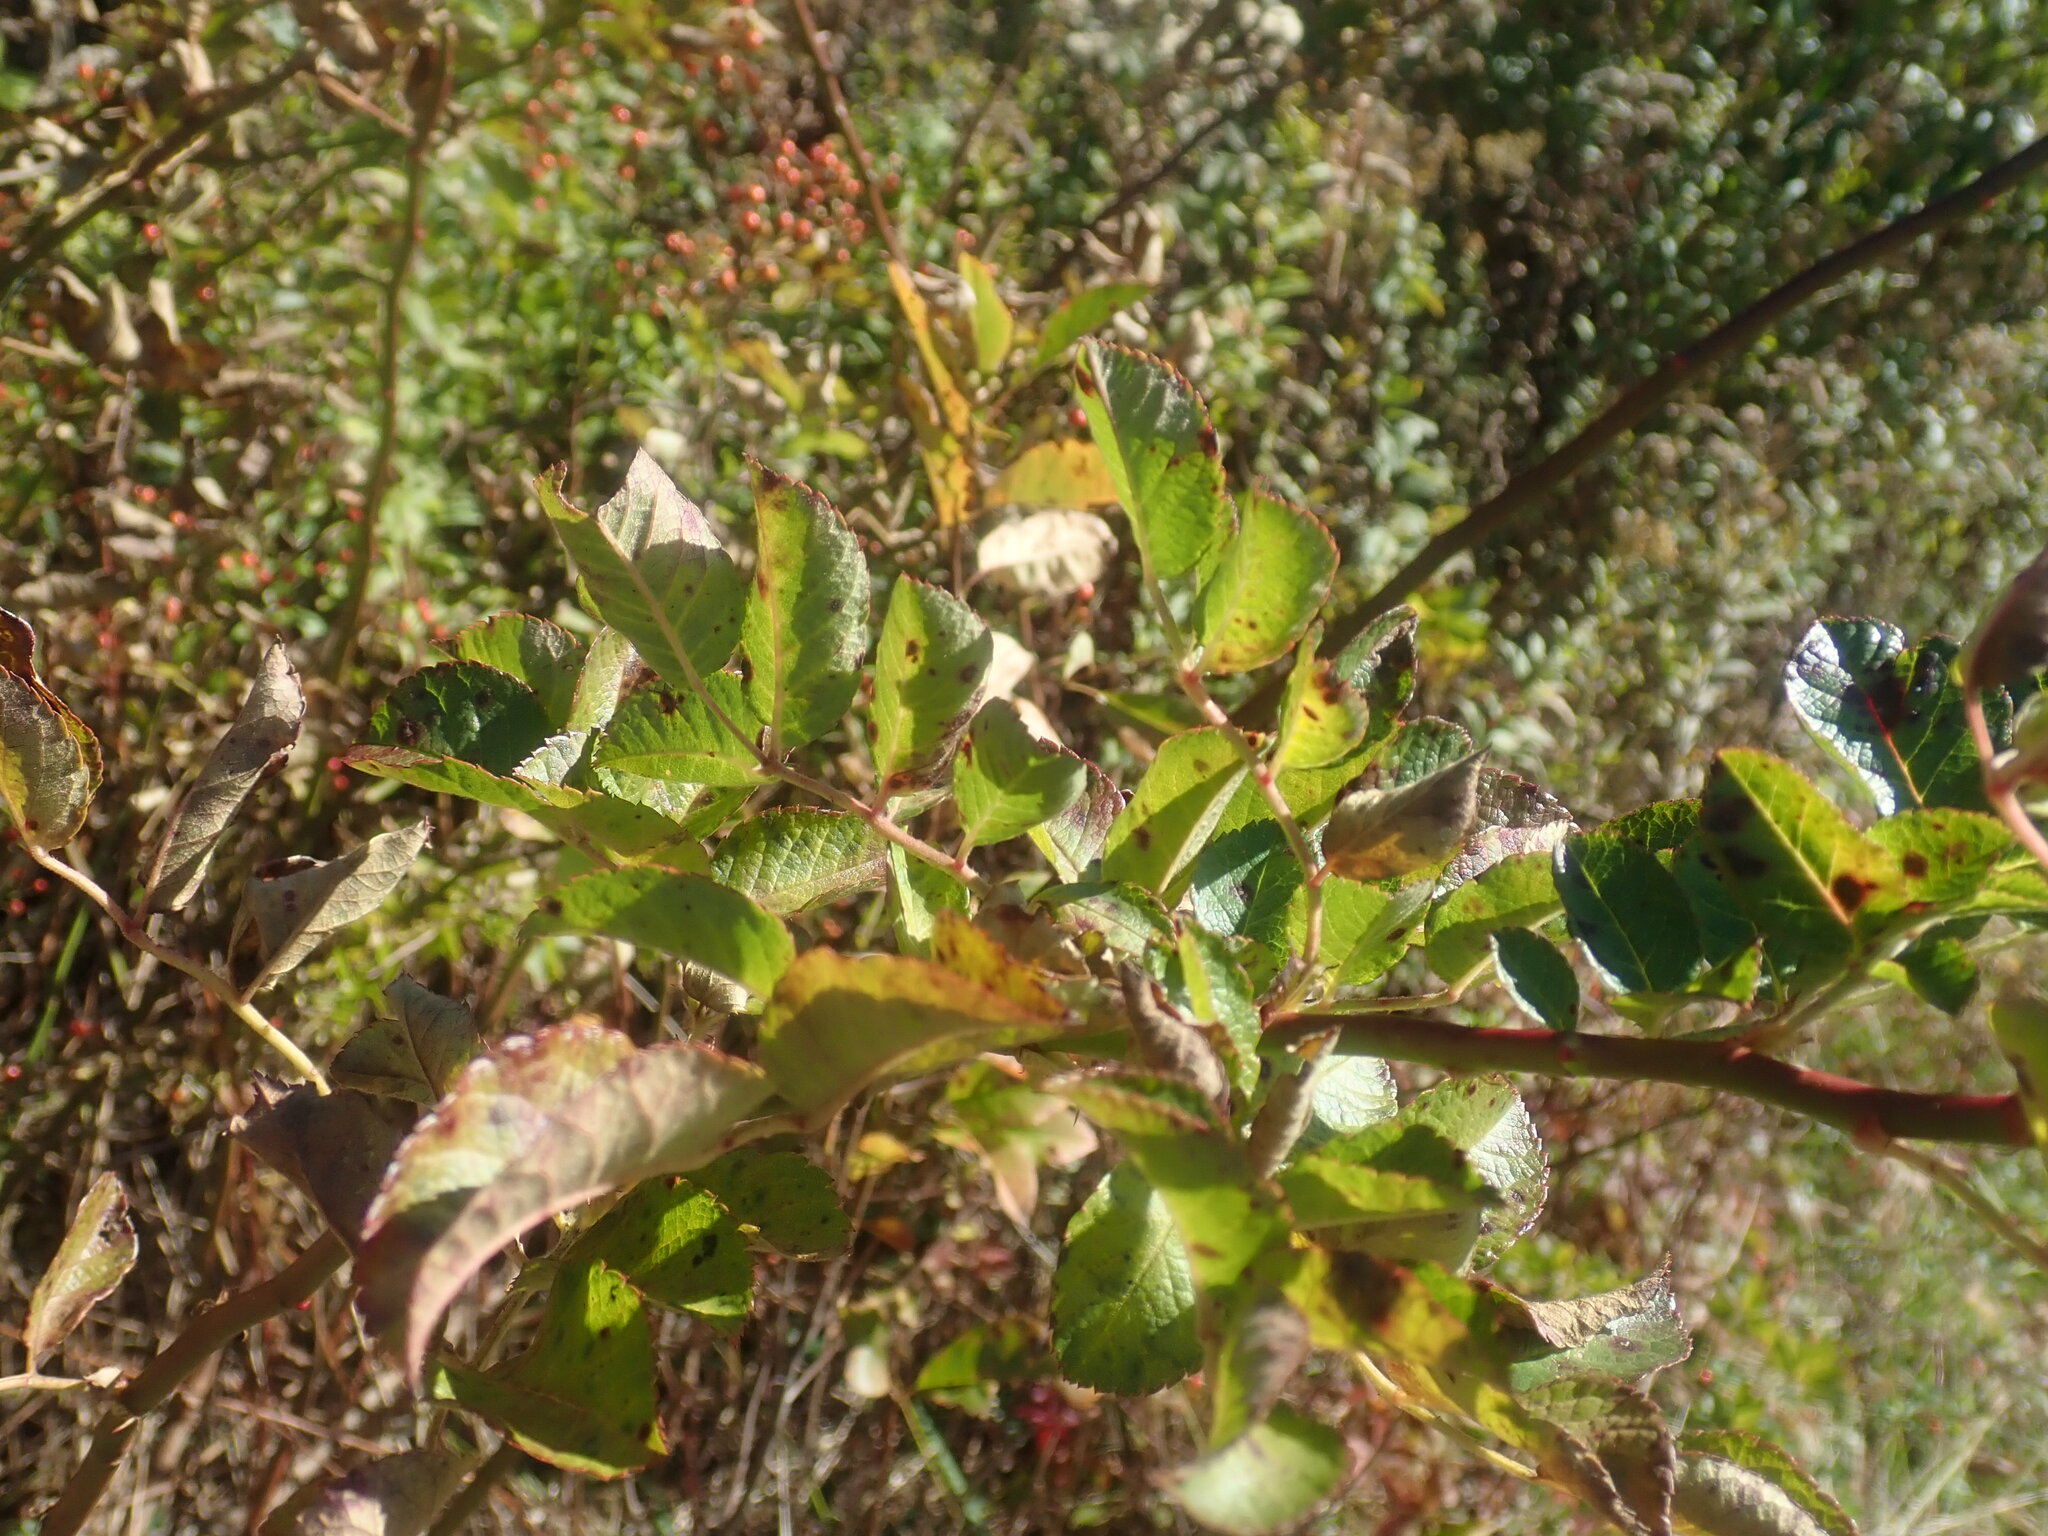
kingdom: Plantae
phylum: Tracheophyta
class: Magnoliopsida
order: Rosales
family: Rosaceae
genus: Rosa
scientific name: Rosa multiflora
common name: Multiflora rose
